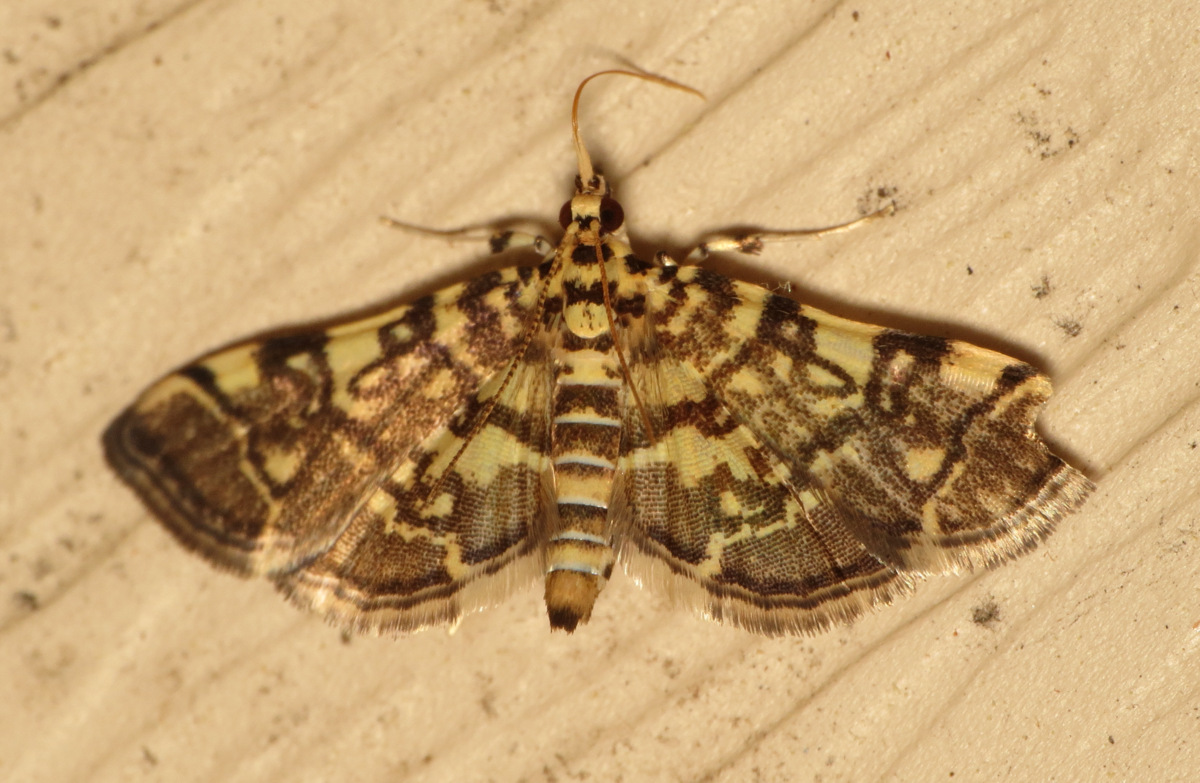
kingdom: Animalia
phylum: Arthropoda
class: Insecta
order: Lepidoptera
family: Crambidae
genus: Apogeshna
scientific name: Apogeshna stenialis
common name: Checkered apogeshna moth
